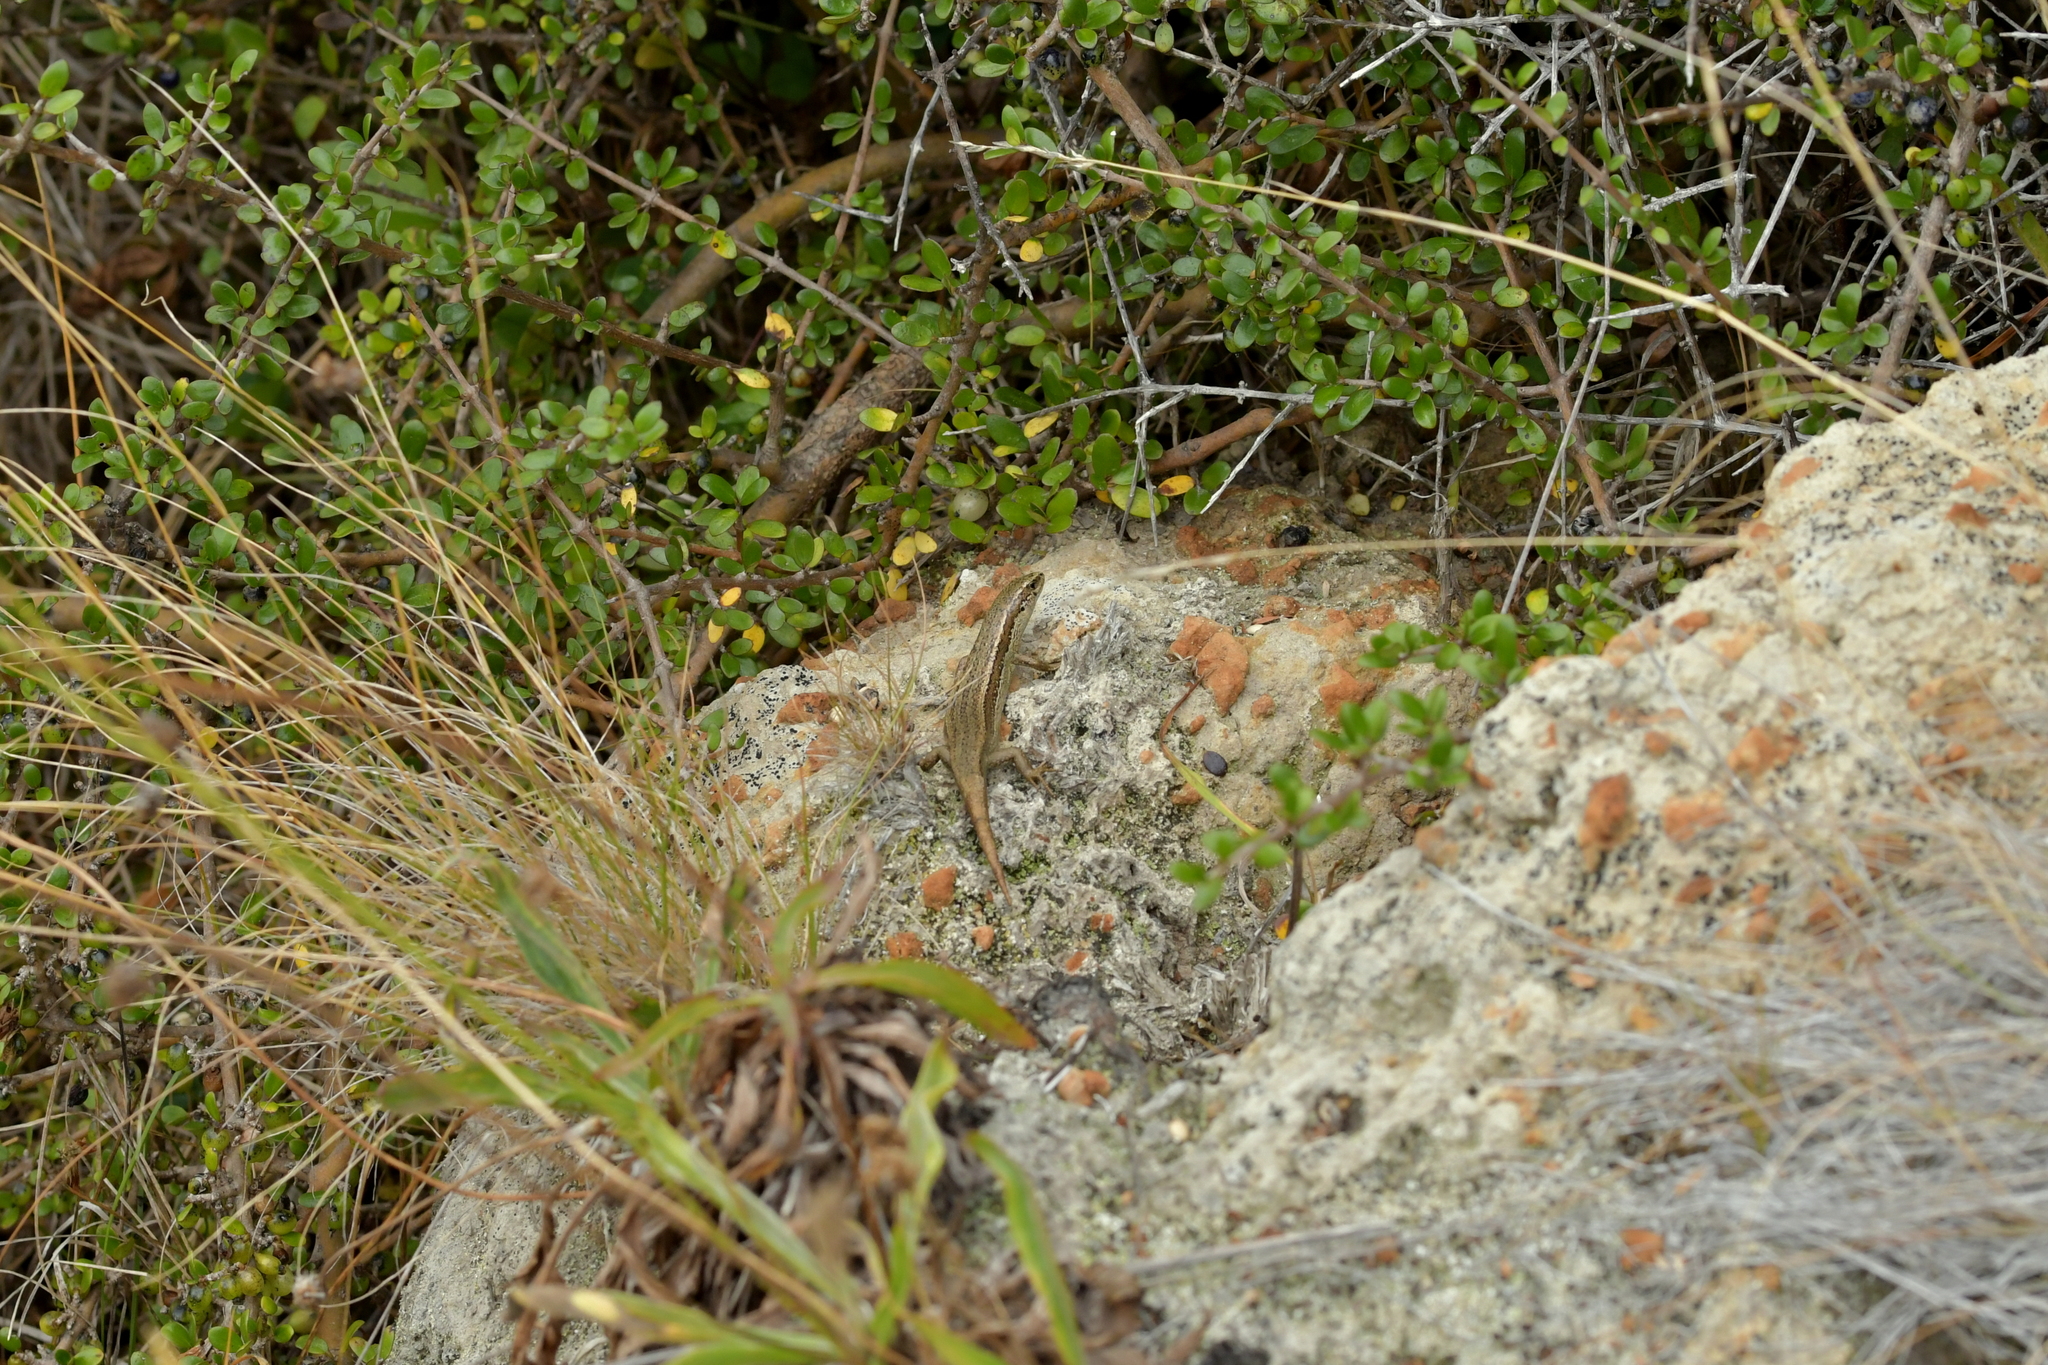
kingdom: Animalia
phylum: Chordata
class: Squamata
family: Scincidae
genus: Oligosoma
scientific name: Oligosoma polychroma
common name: Common new zealand skink
